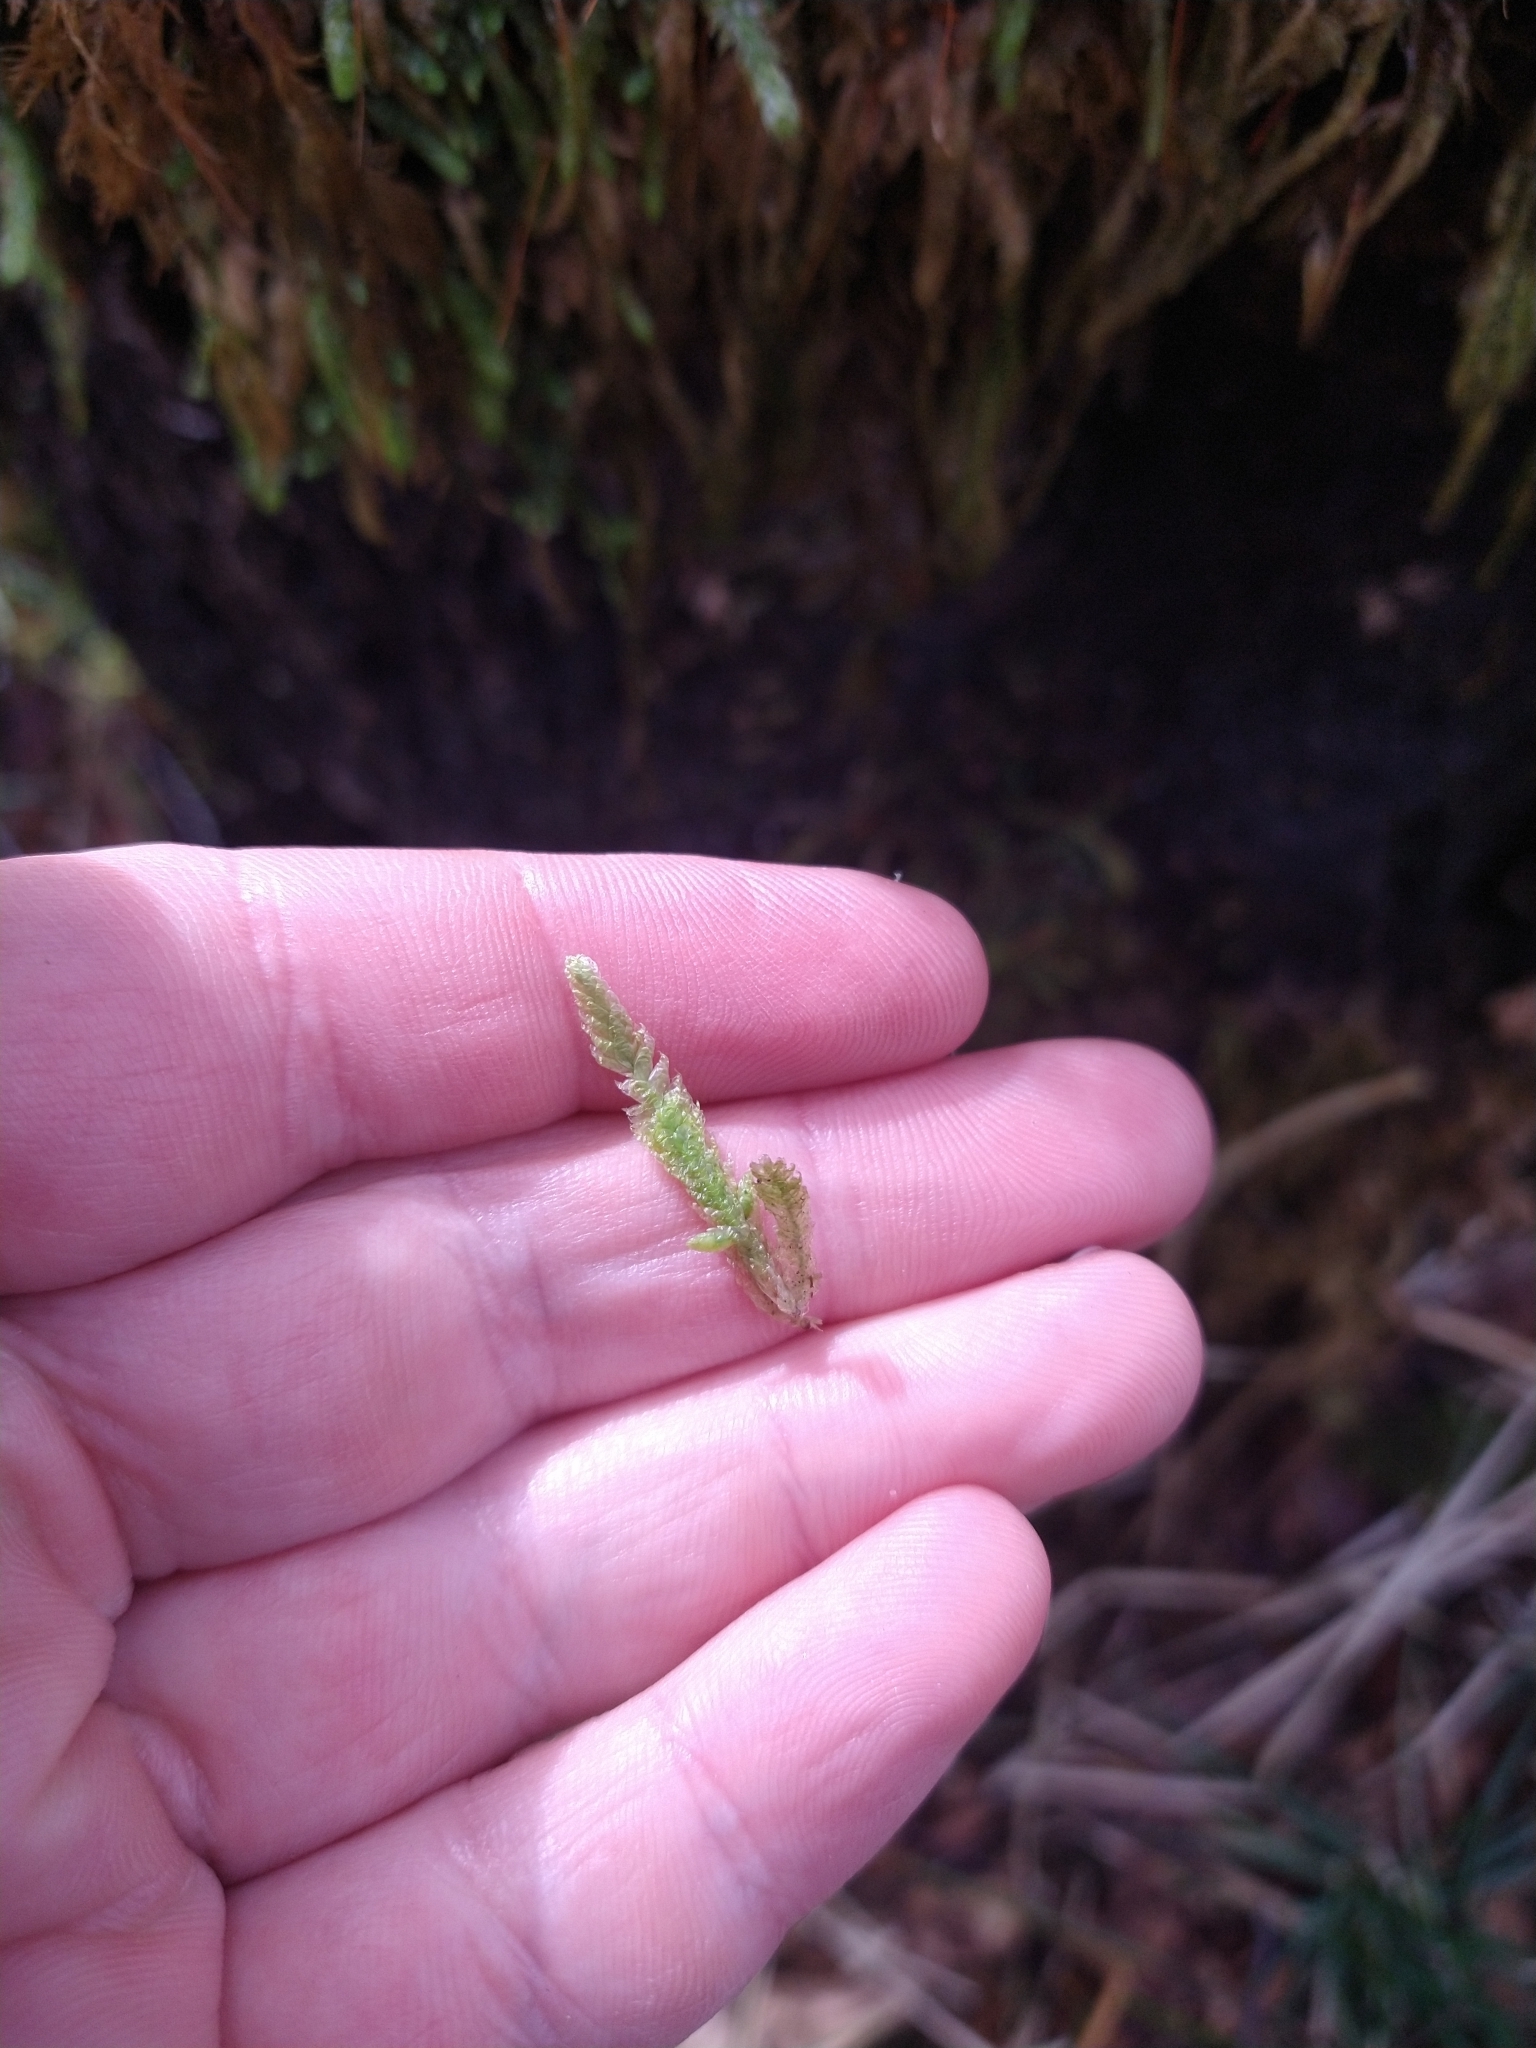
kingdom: Plantae
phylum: Bryophyta
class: Bryopsida
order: Hypnales
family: Plagiotheciaceae
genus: Plagiothecium
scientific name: Plagiothecium undulatum
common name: Waved silk-moss
